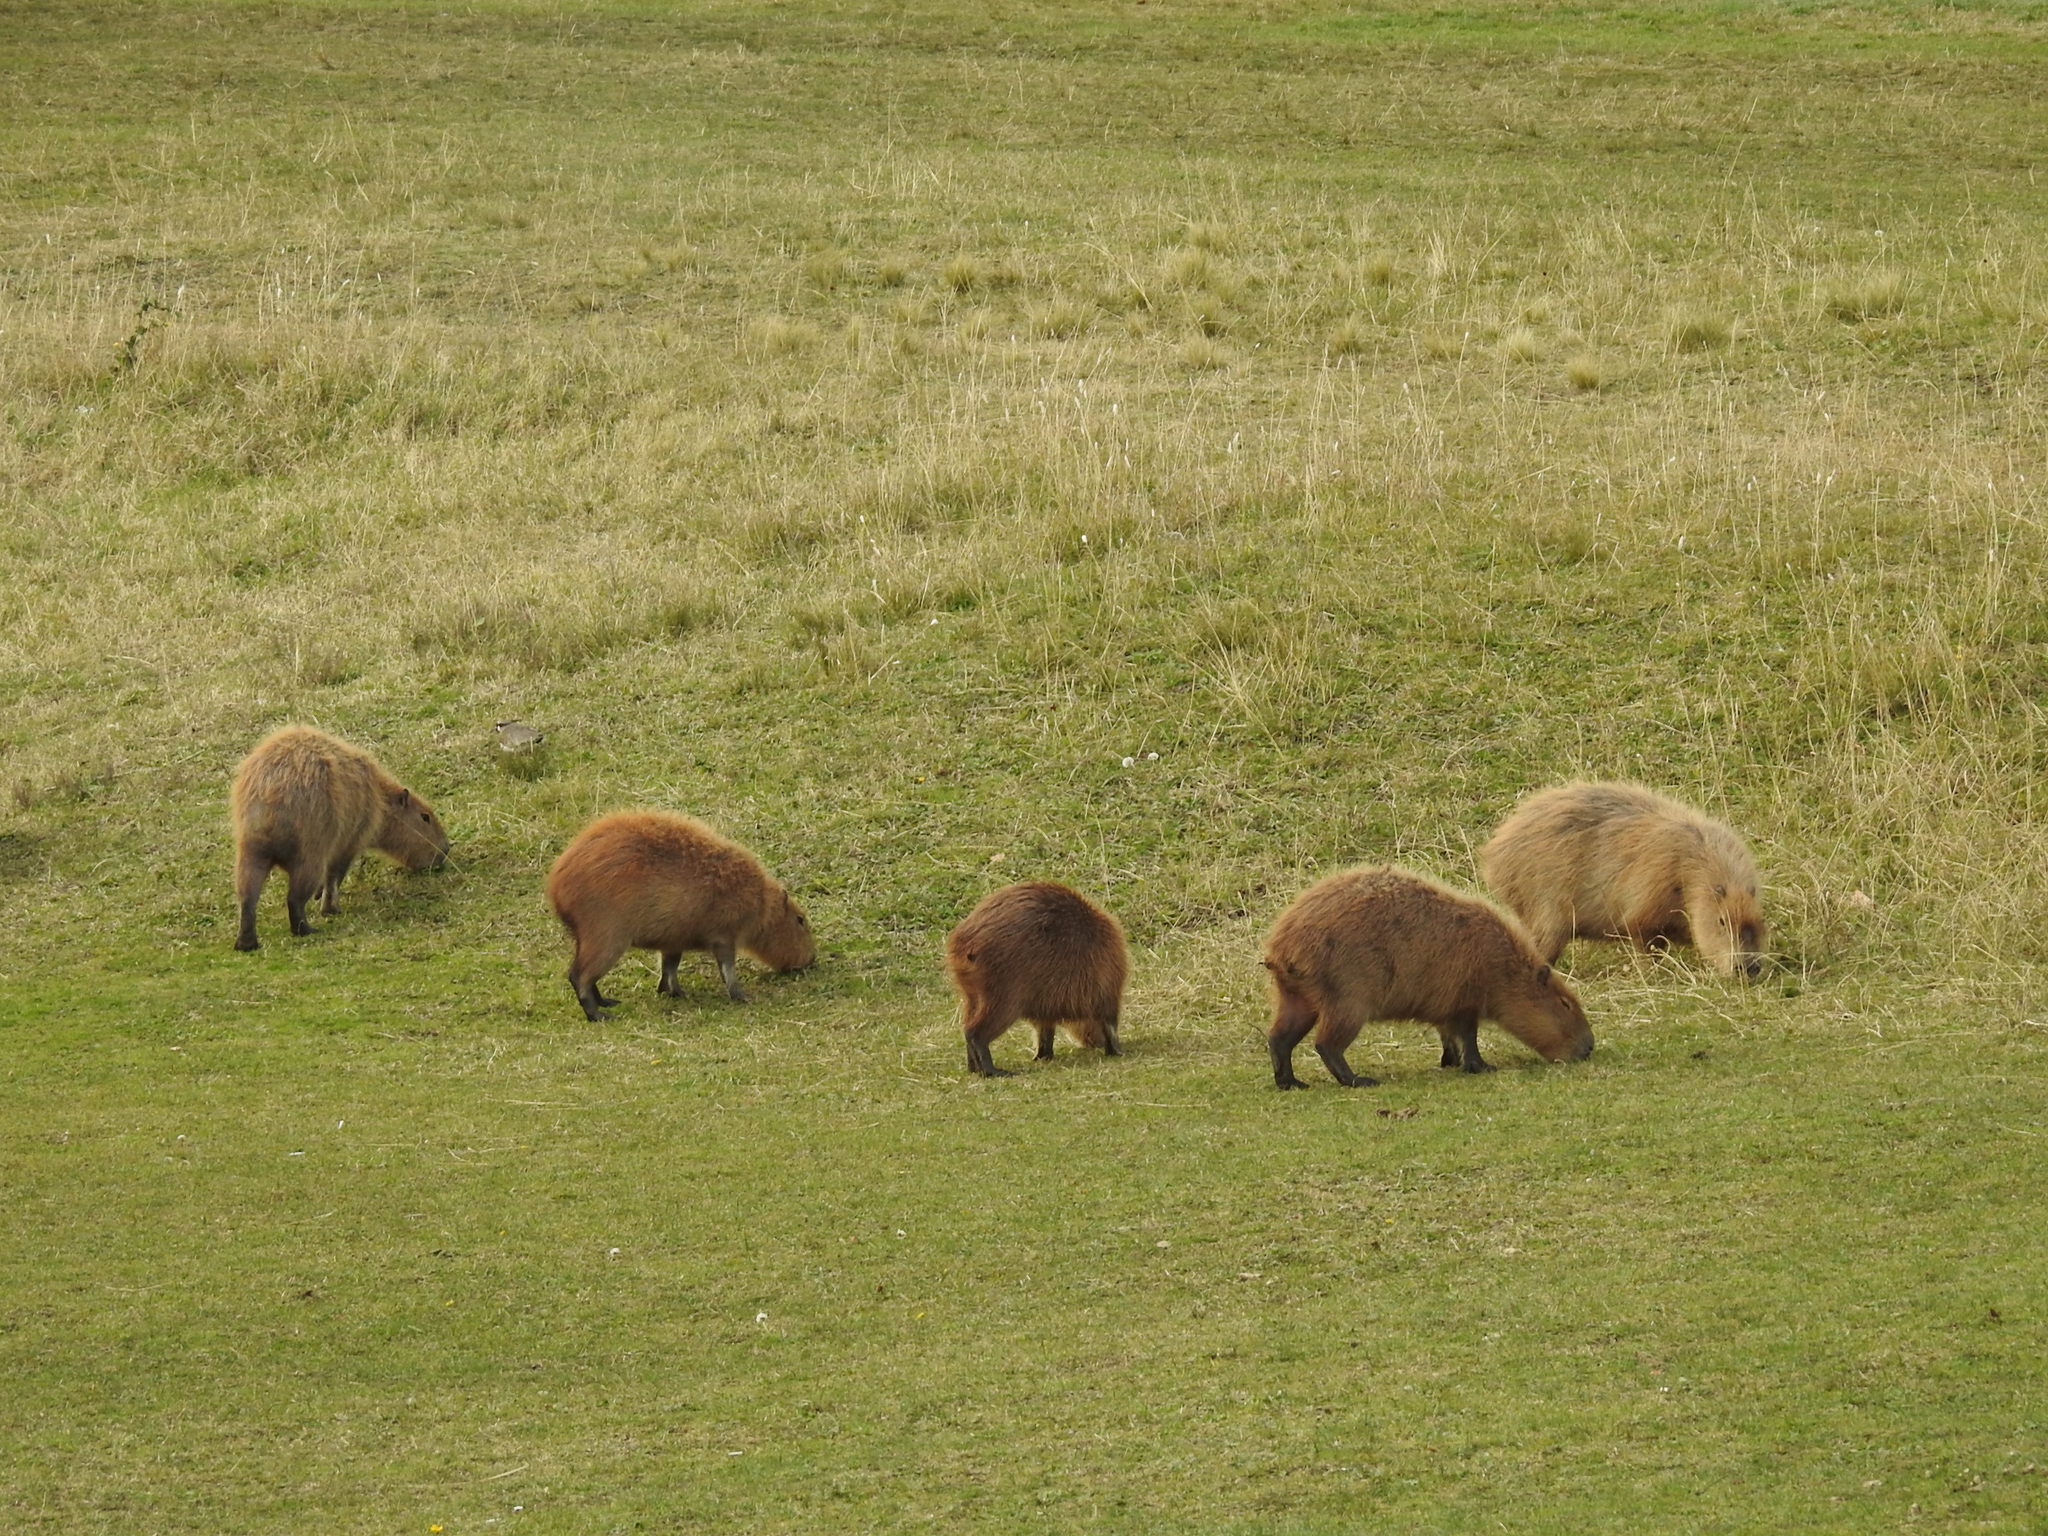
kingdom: Animalia
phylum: Chordata
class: Mammalia
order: Rodentia
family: Caviidae
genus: Hydrochoerus
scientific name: Hydrochoerus hydrochaeris
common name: Capybara
